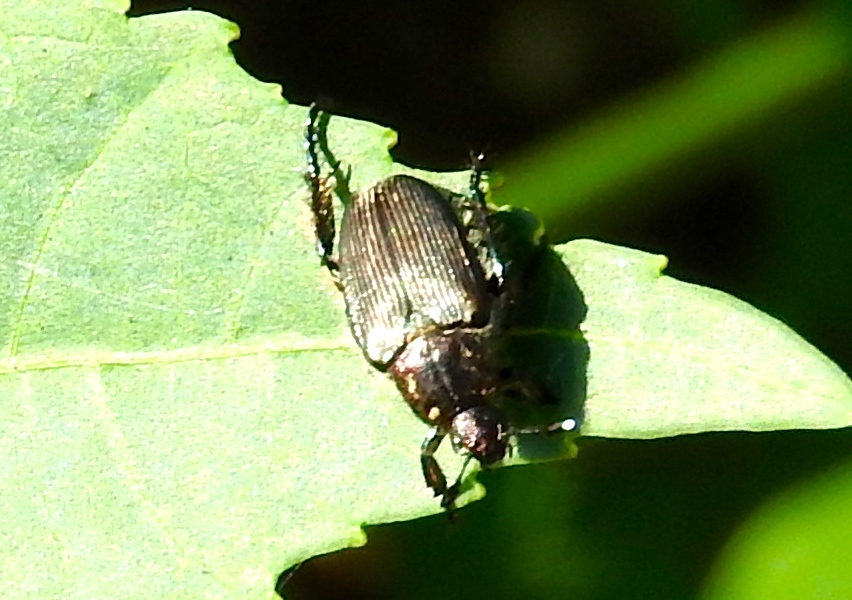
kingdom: Animalia
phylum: Arthropoda
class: Insecta
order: Coleoptera
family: Scarabaeidae
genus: Strigoderma
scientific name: Strigoderma
